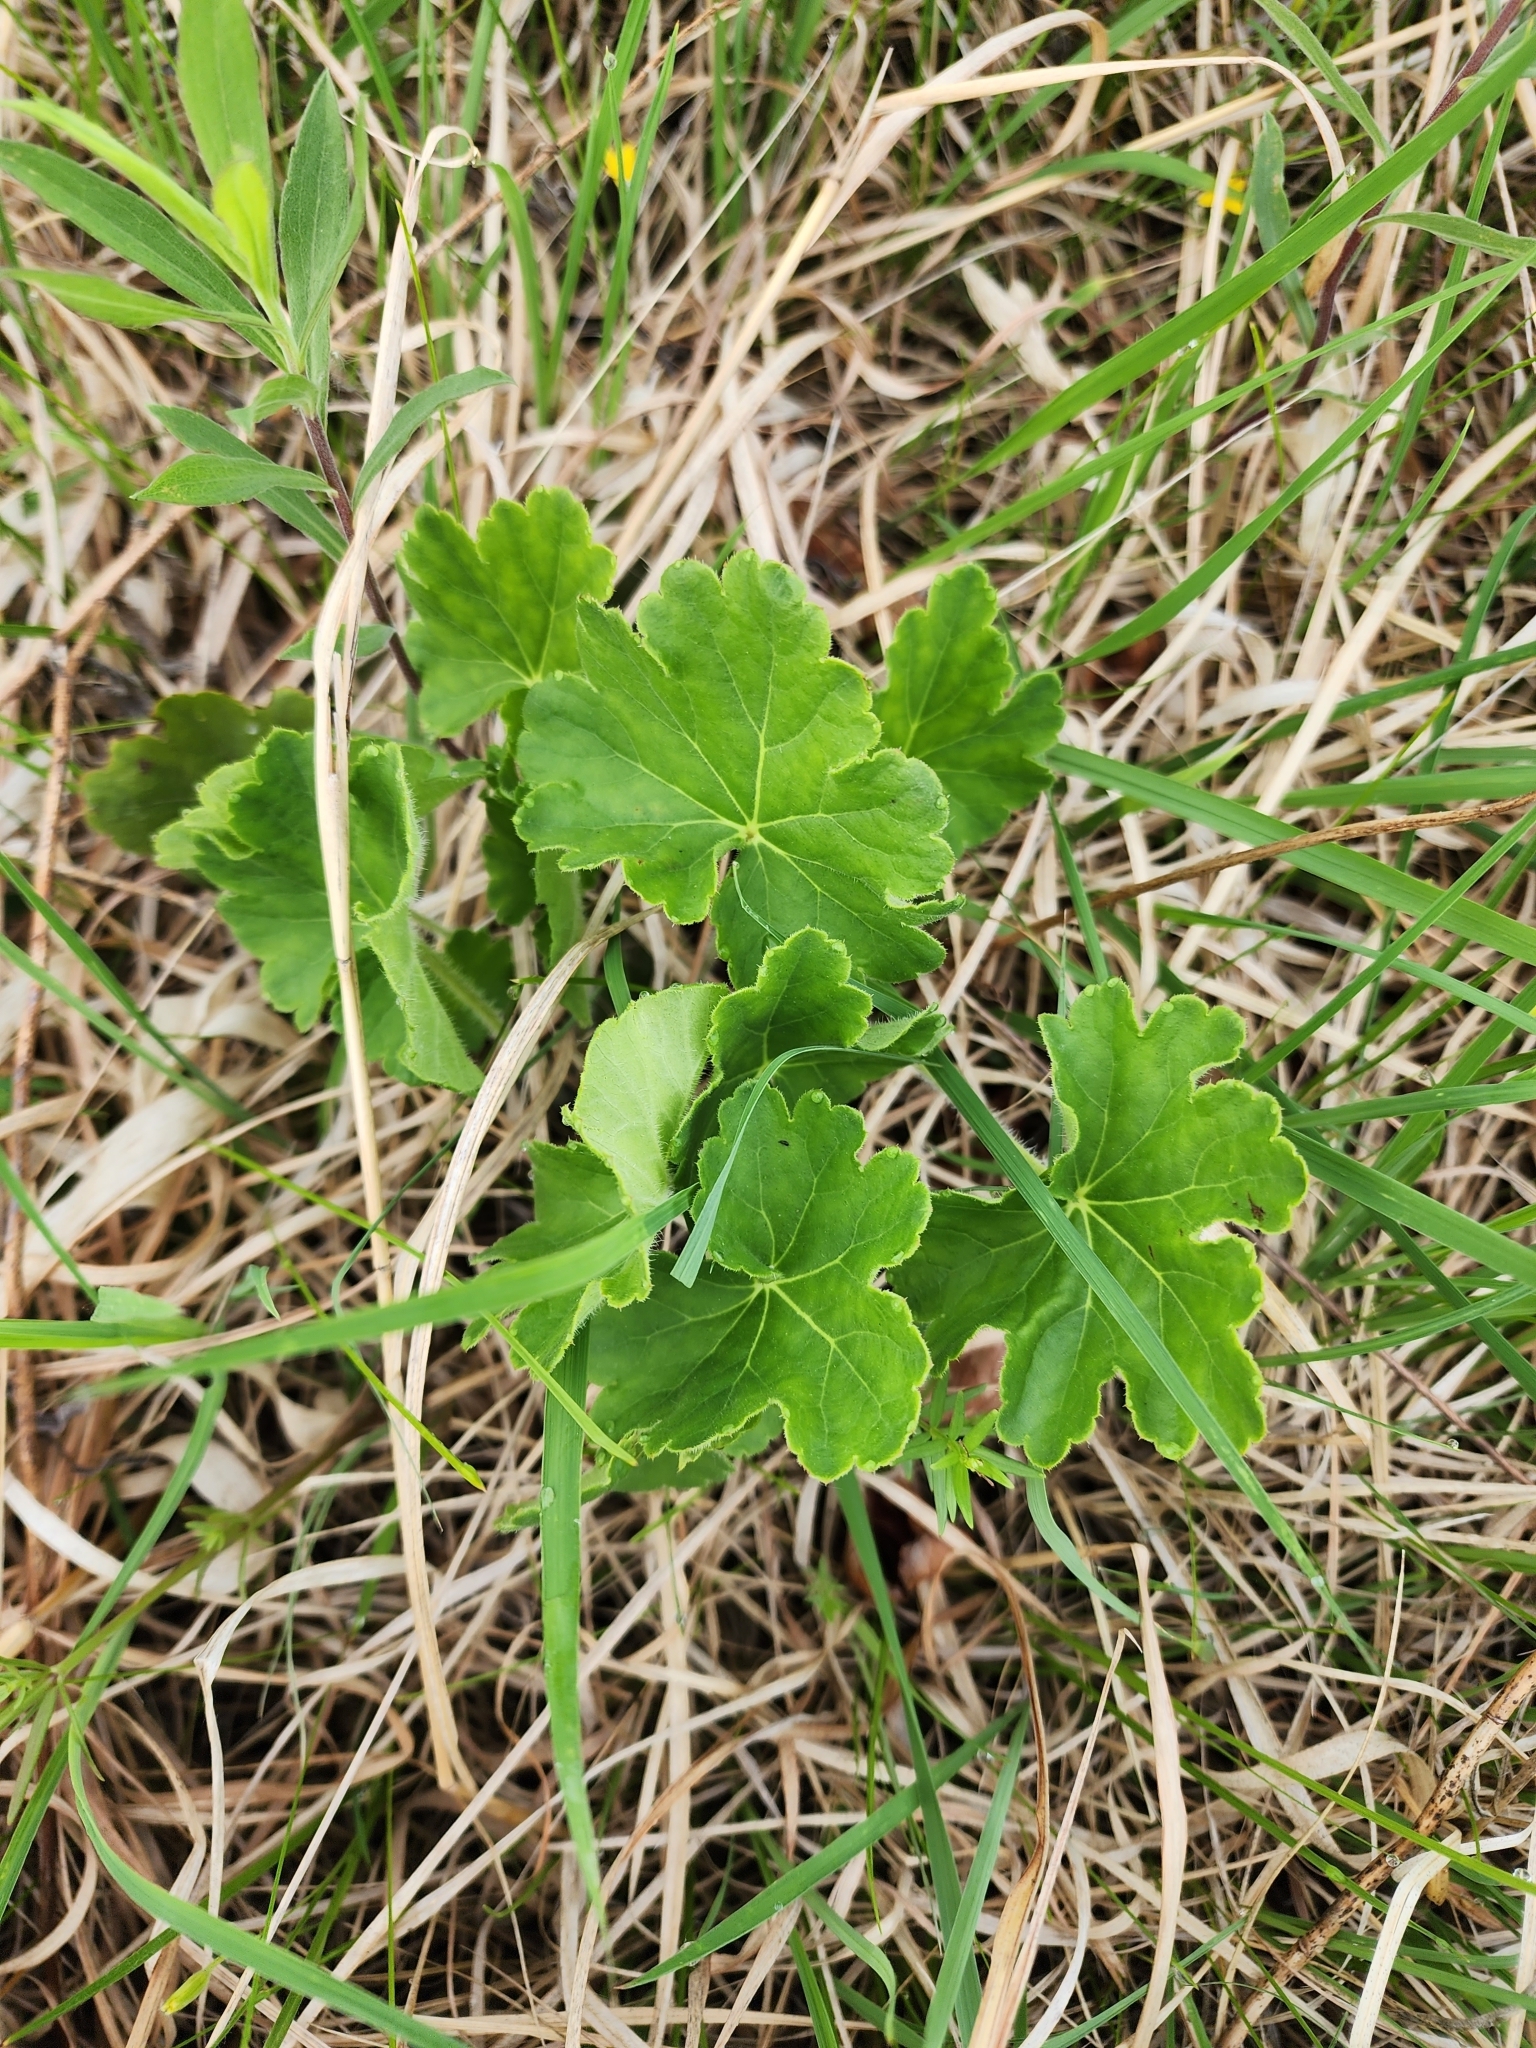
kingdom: Plantae
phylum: Tracheophyta
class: Magnoliopsida
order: Saxifragales
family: Saxifragaceae
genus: Heuchera
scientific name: Heuchera richardsonii
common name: Richardson's alumroot
